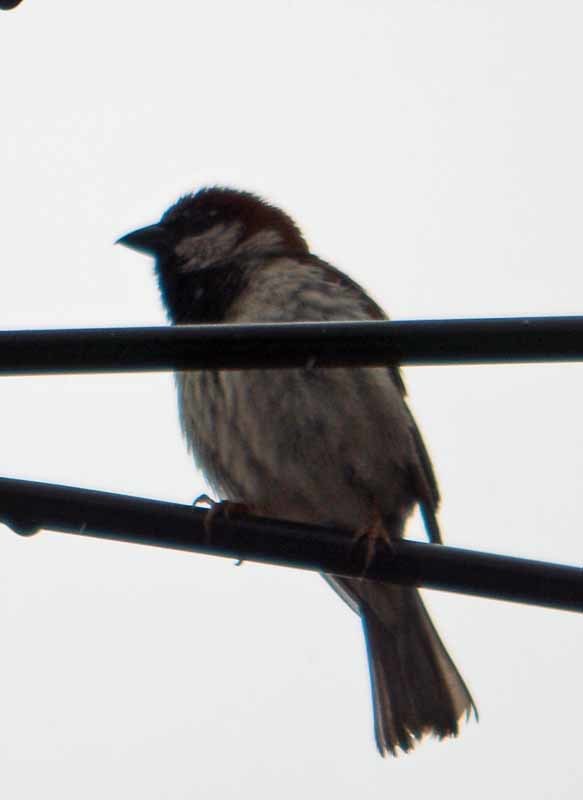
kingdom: Animalia
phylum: Chordata
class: Aves
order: Passeriformes
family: Passeridae
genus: Passer
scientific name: Passer domesticus
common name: House sparrow
